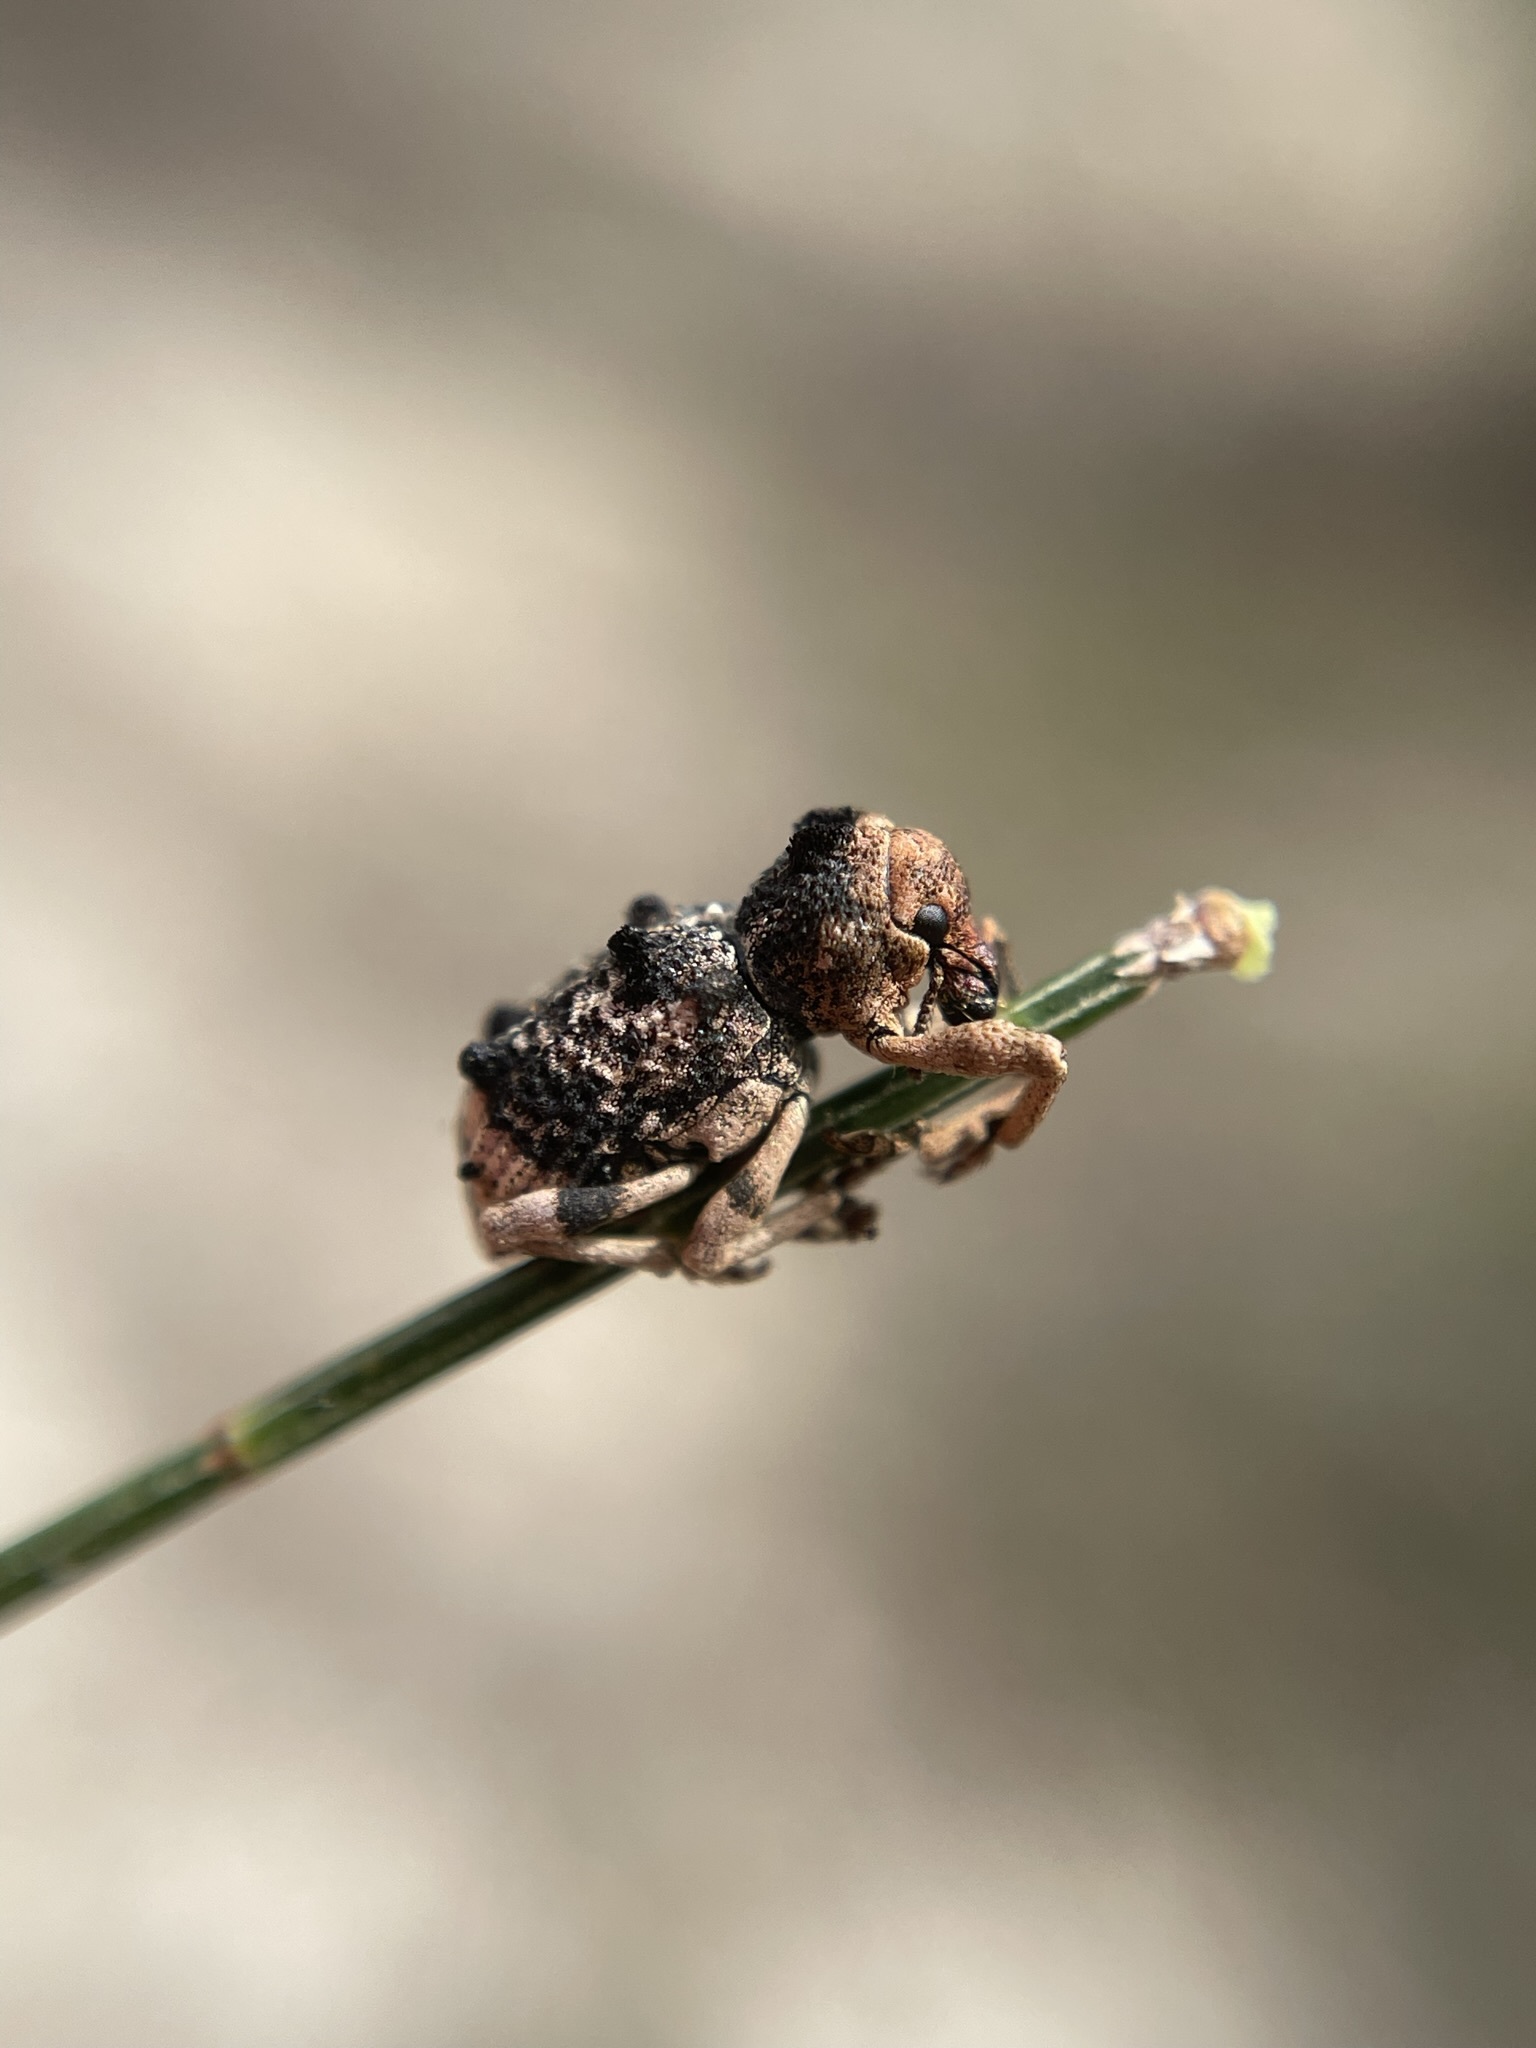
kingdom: Animalia
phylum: Arthropoda
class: Insecta
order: Coleoptera
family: Curculionidae
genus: Aades
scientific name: Aades cultratus
